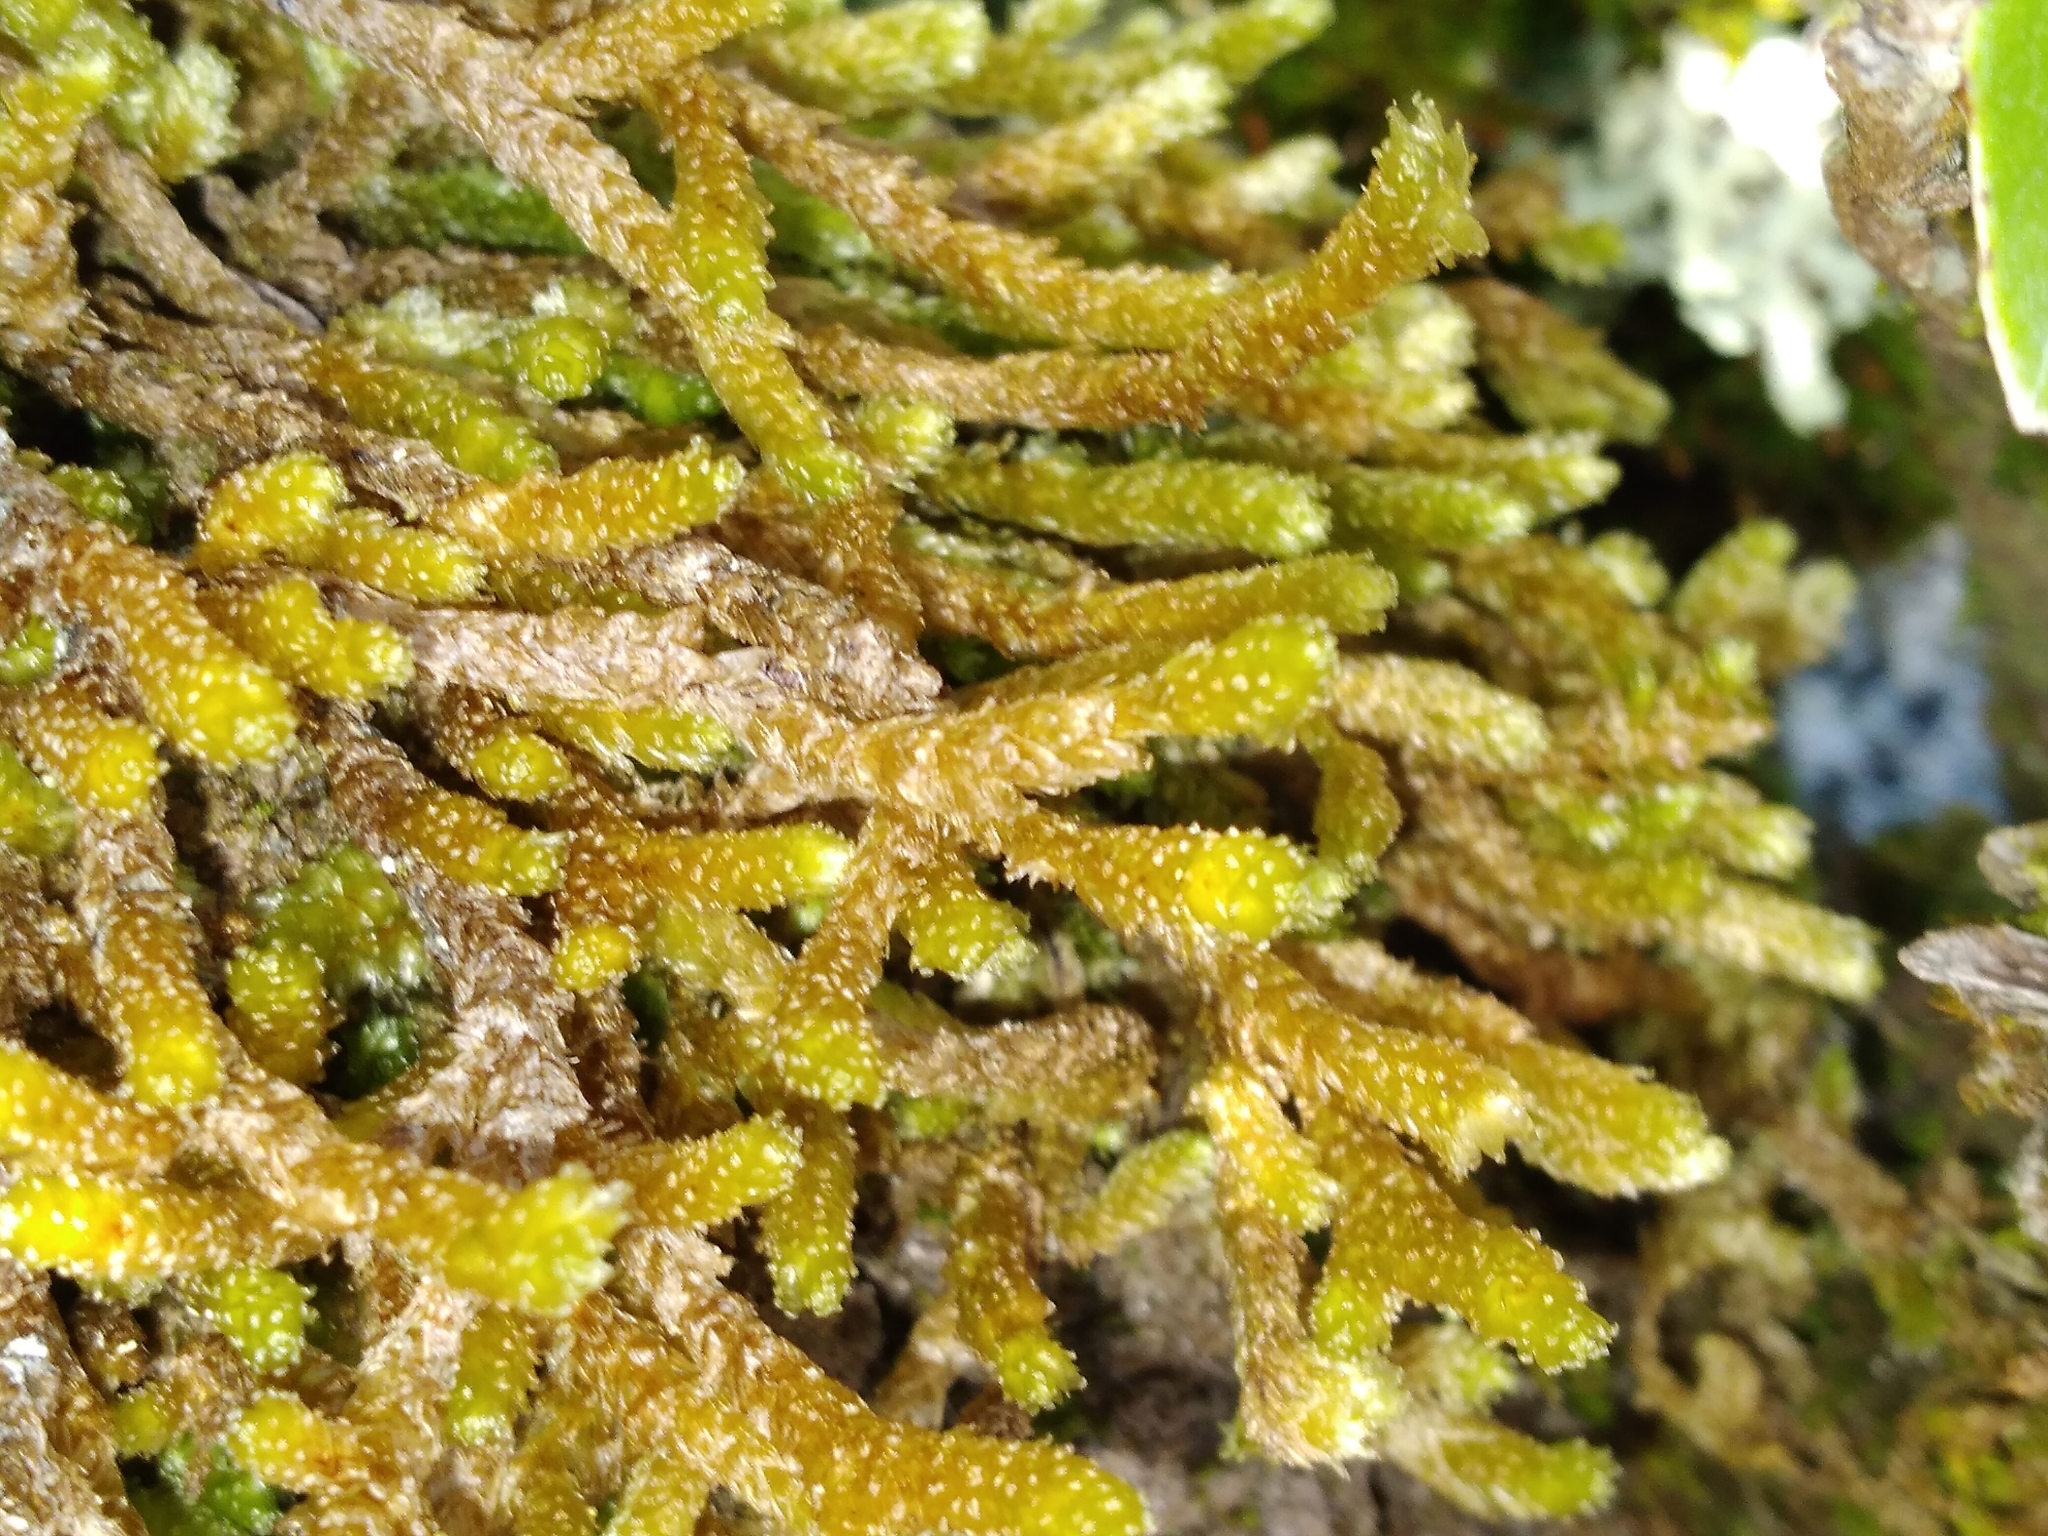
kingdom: Plantae
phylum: Bryophyta
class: Bryopsida
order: Ptychomniales
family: Ptychomniaceae
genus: Cladomnion
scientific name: Cladomnion ericoides
